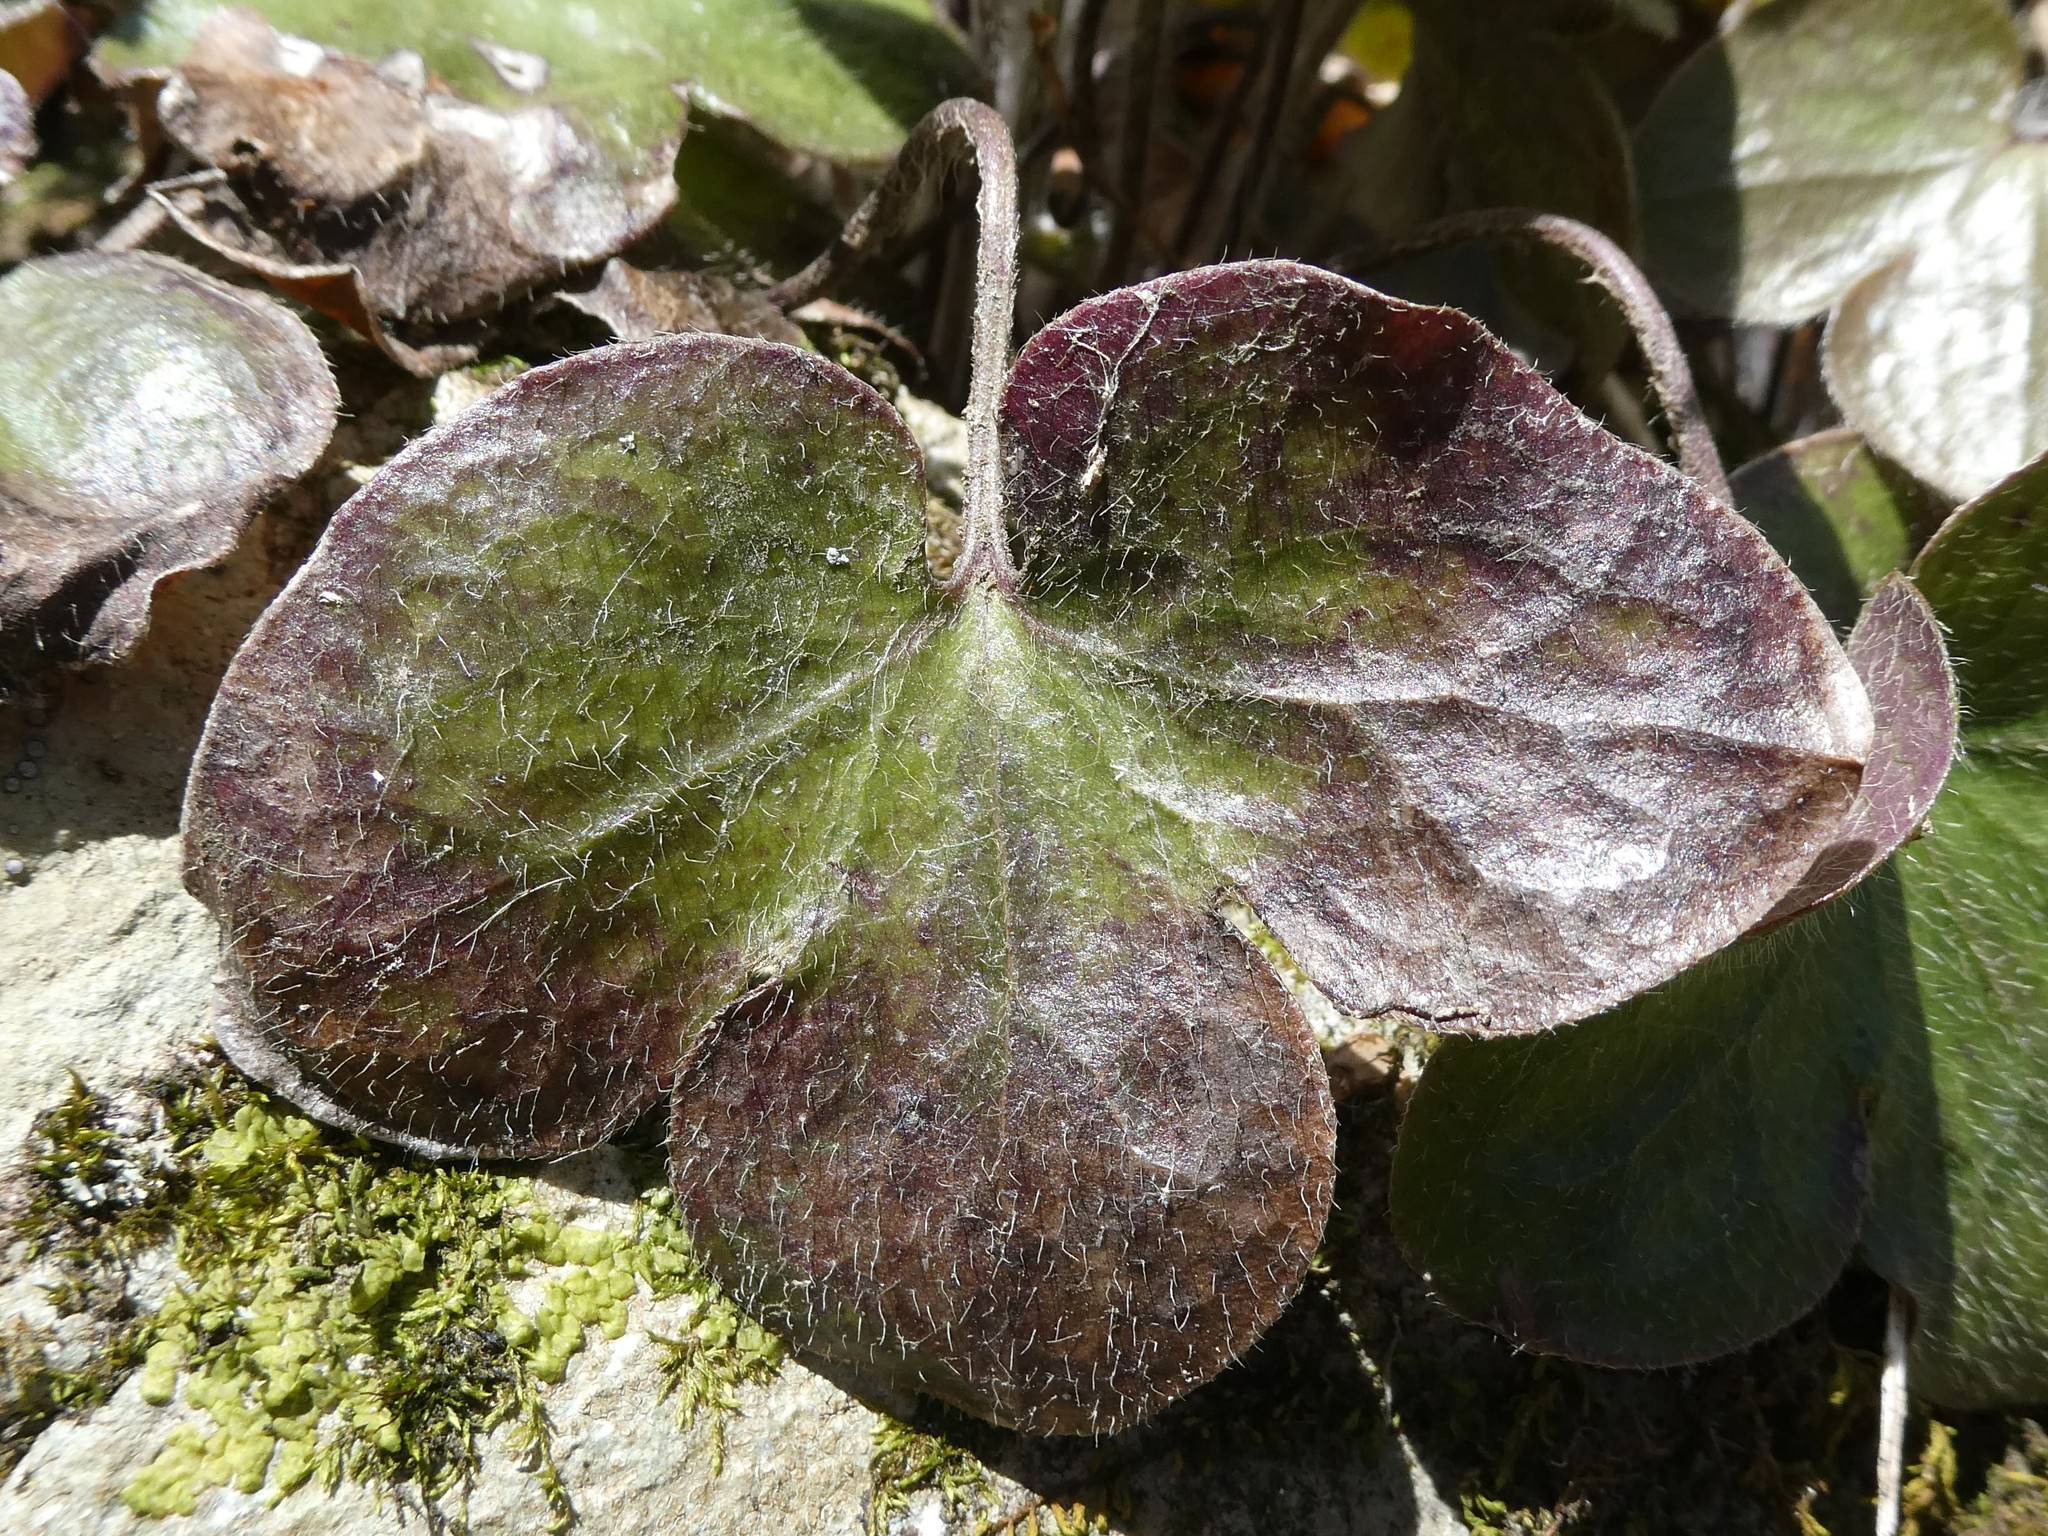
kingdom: Plantae
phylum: Tracheophyta
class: Magnoliopsida
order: Ranunculales
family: Ranunculaceae
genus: Hepatica
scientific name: Hepatica americana
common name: American hepatica
